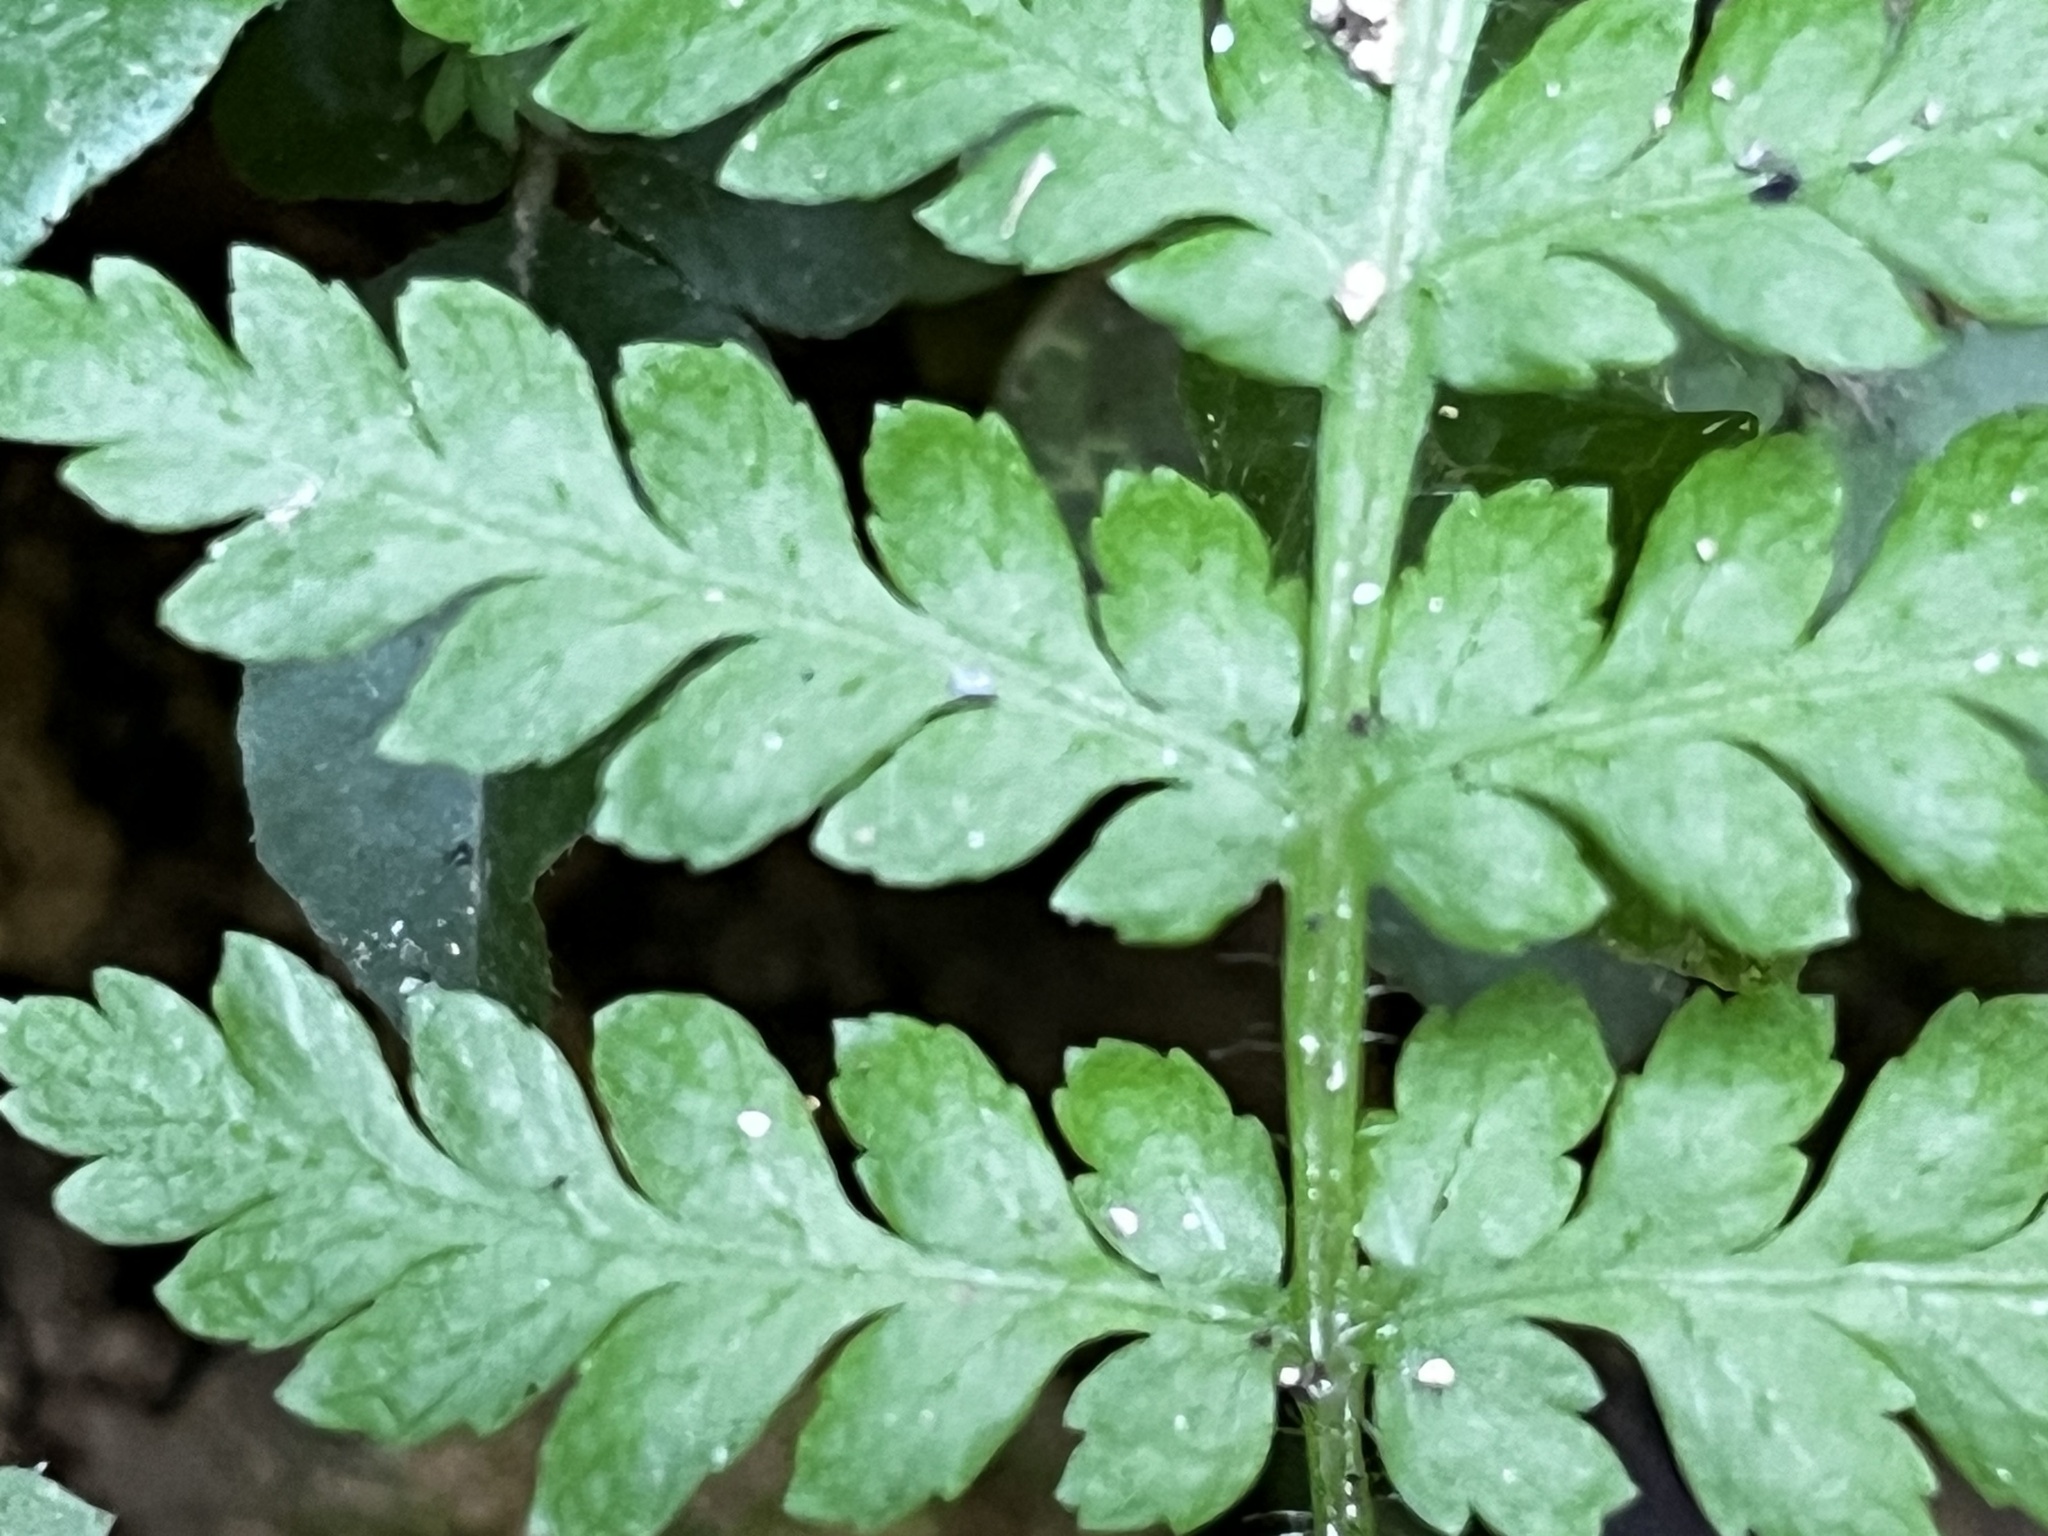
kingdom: Plantae
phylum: Tracheophyta
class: Polypodiopsida
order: Cyatheales
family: Cyatheaceae
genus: Alsophila
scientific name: Alsophila lepifera
